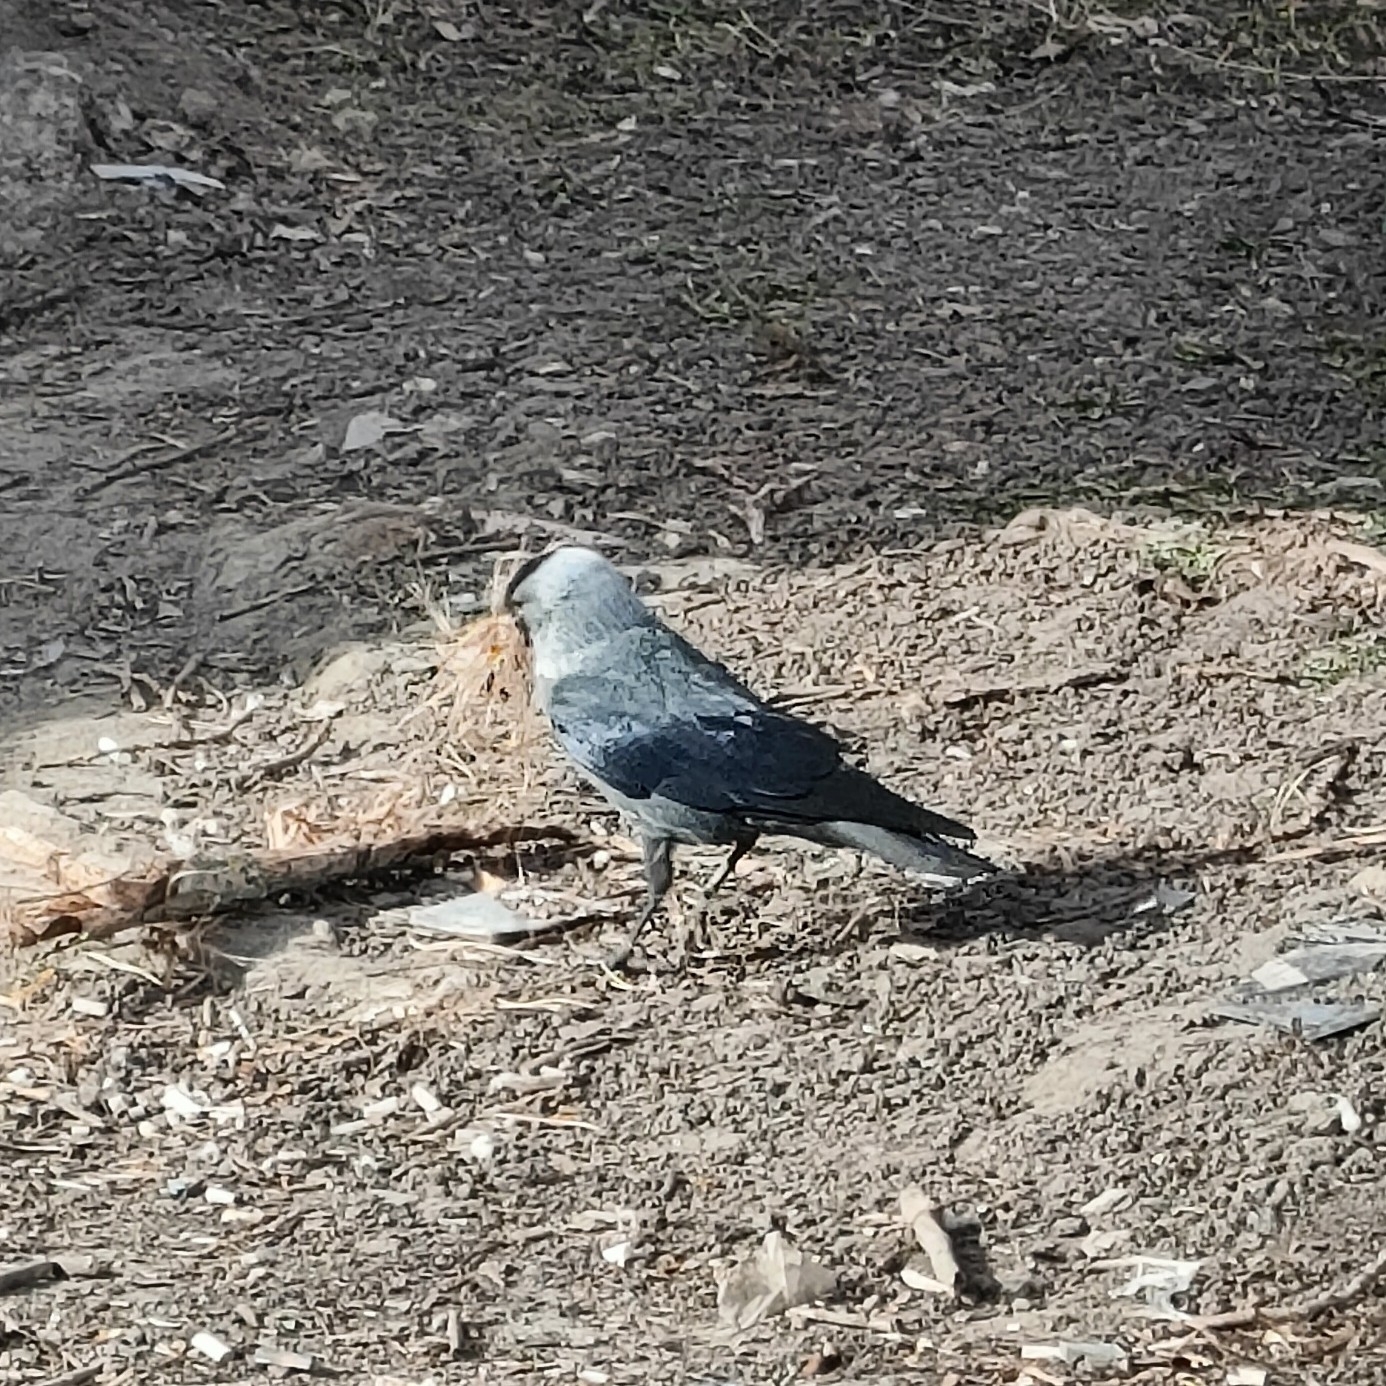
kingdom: Animalia
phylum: Chordata
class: Aves
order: Passeriformes
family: Corvidae
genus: Coloeus
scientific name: Coloeus monedula
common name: Western jackdaw
